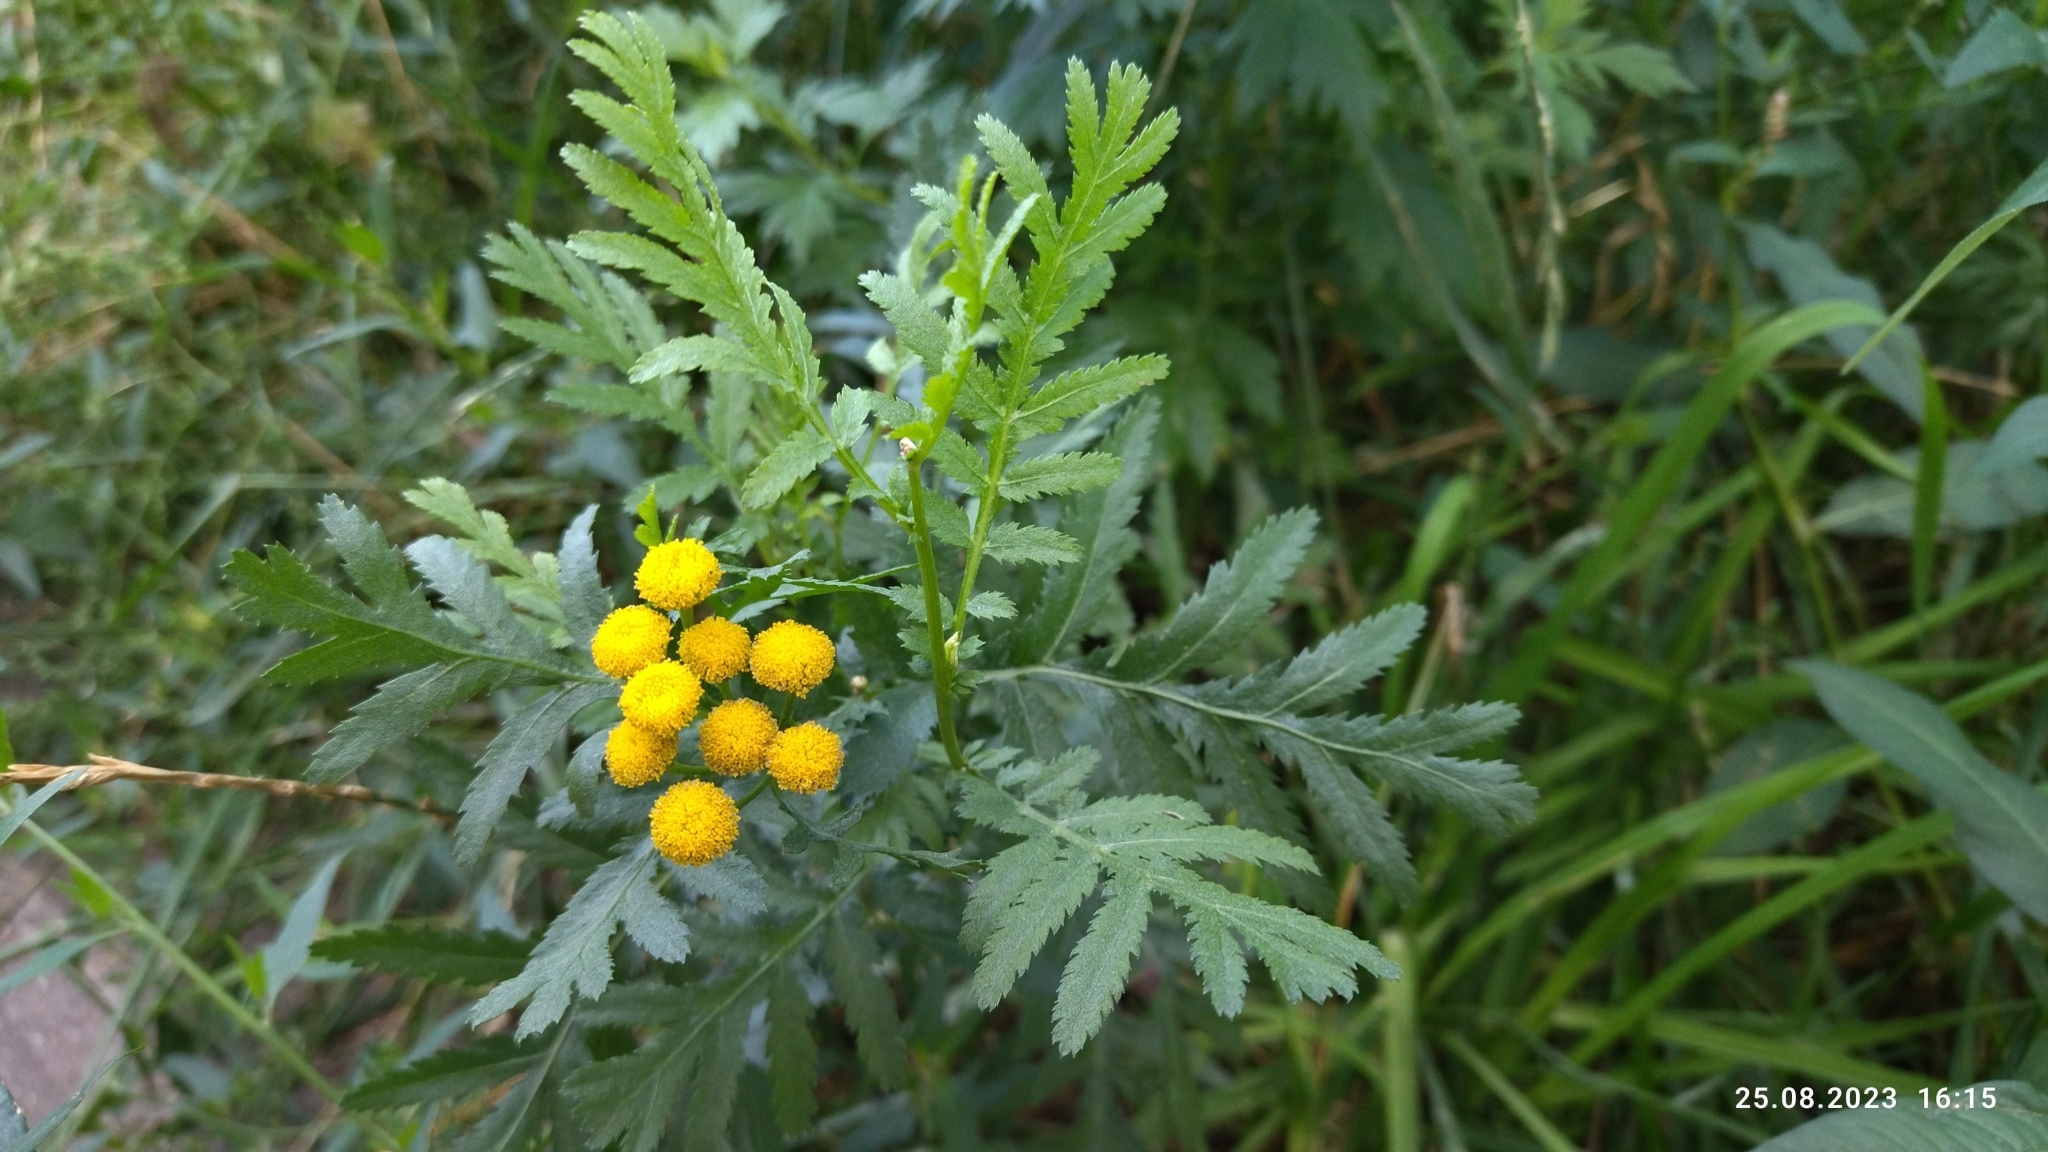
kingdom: Plantae
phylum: Tracheophyta
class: Magnoliopsida
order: Asterales
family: Asteraceae
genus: Tanacetum
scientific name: Tanacetum vulgare
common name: Common tansy
